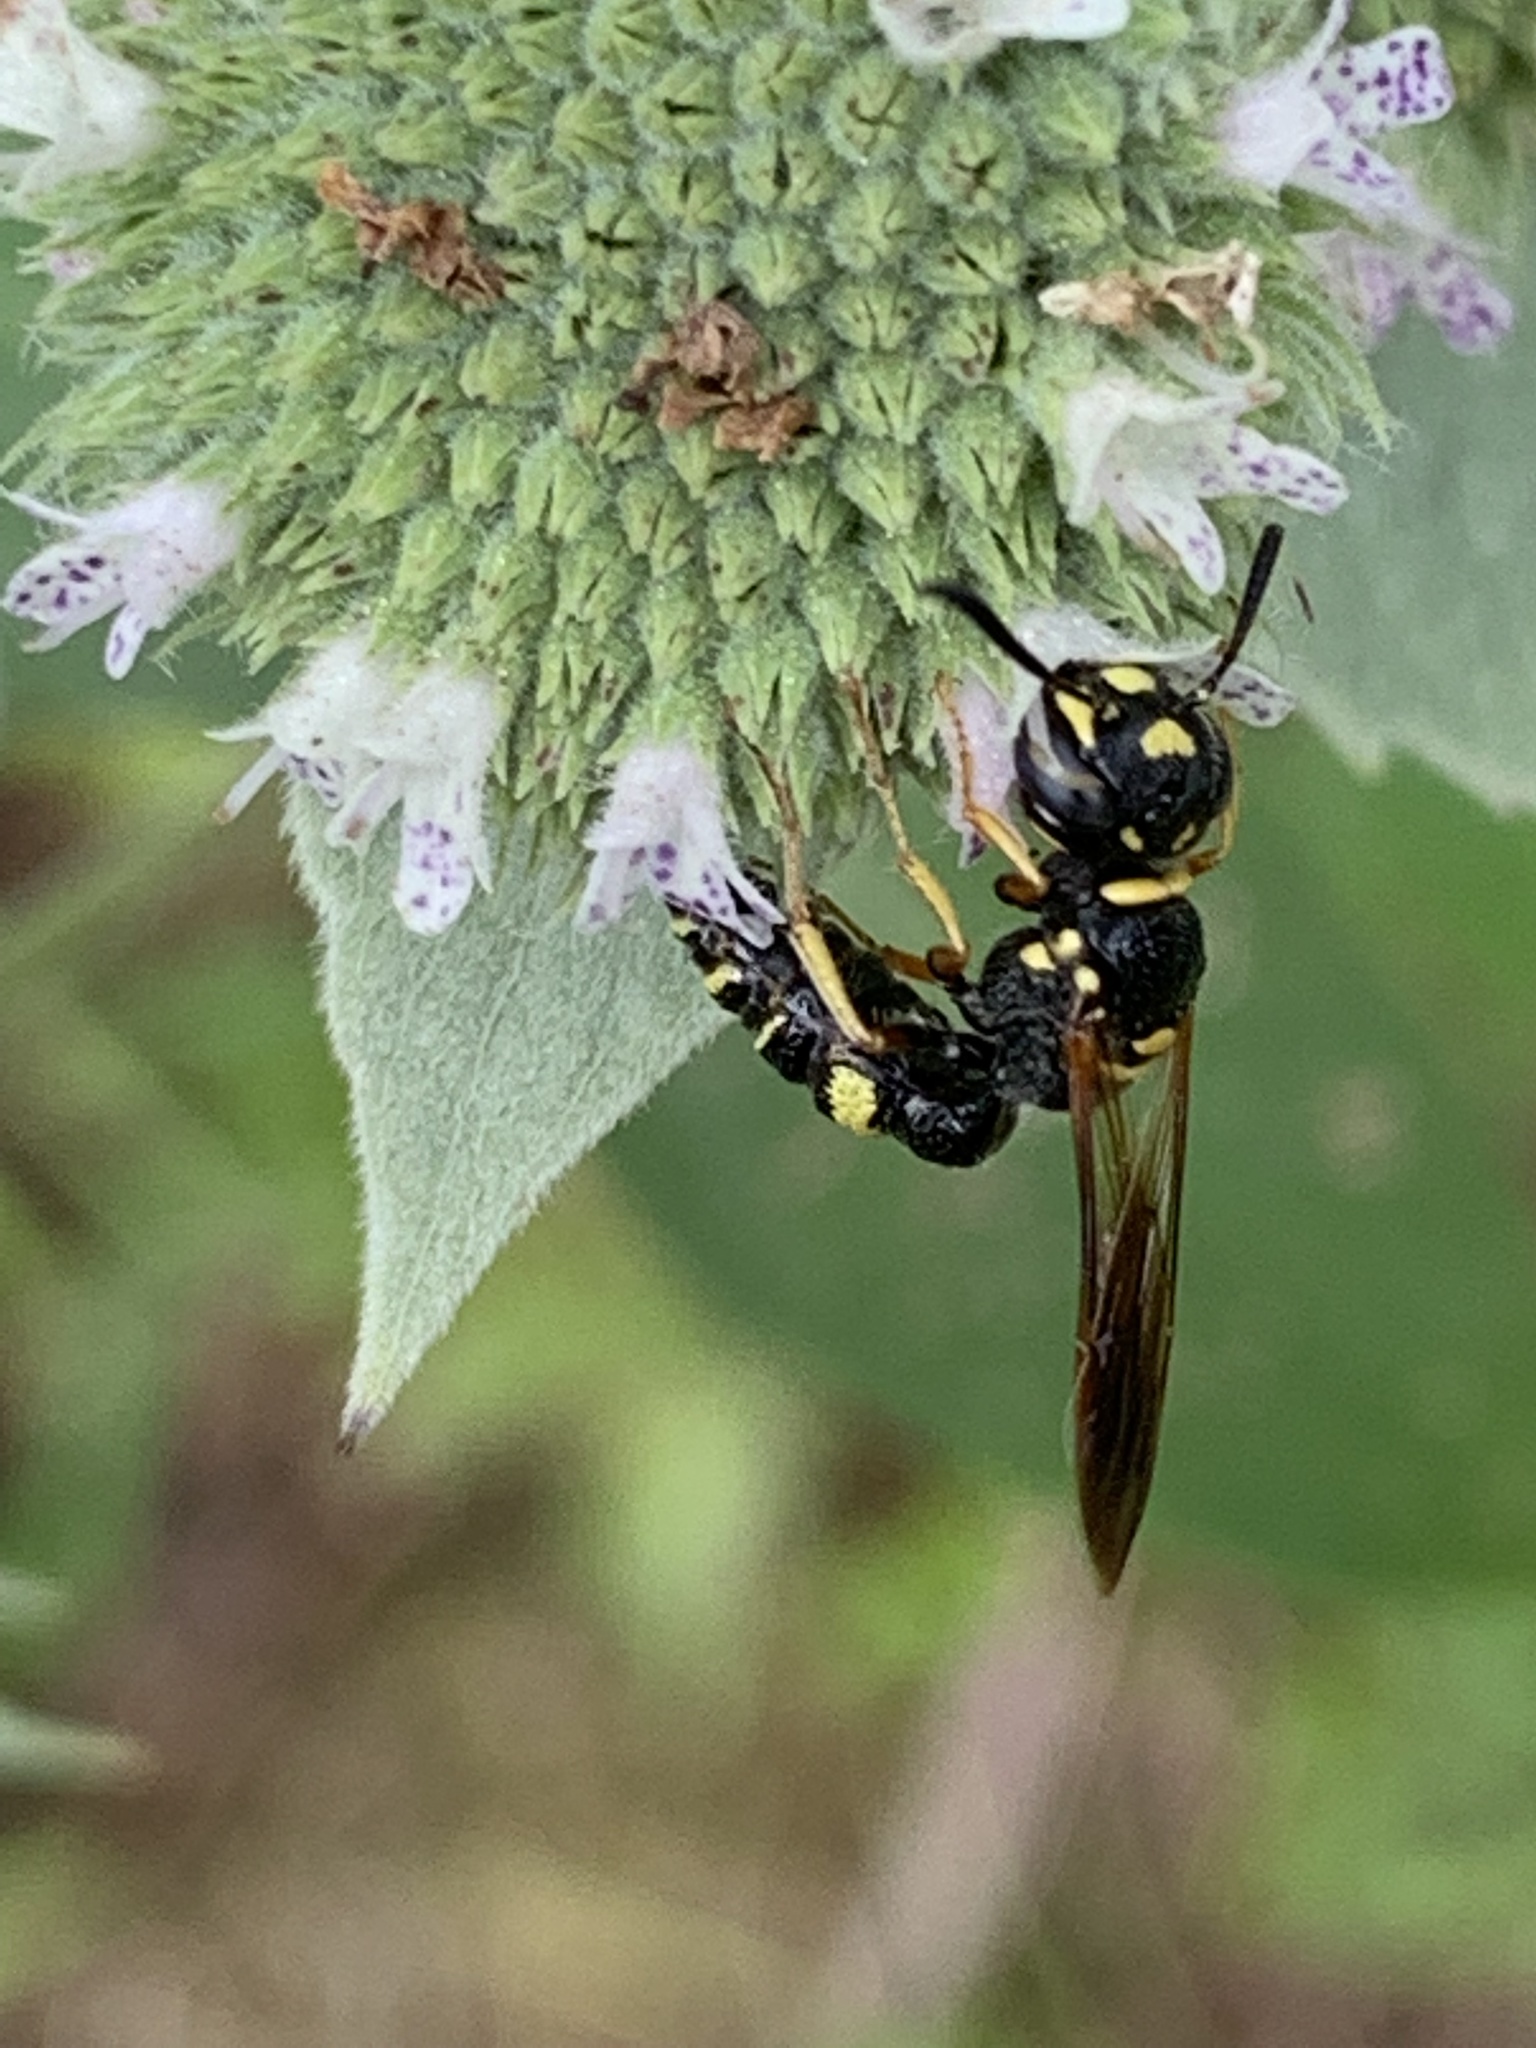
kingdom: Animalia
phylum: Arthropoda
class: Insecta
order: Hymenoptera
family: Crabronidae
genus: Philanthus
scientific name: Philanthus gibbosus
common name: Humped beewolf
